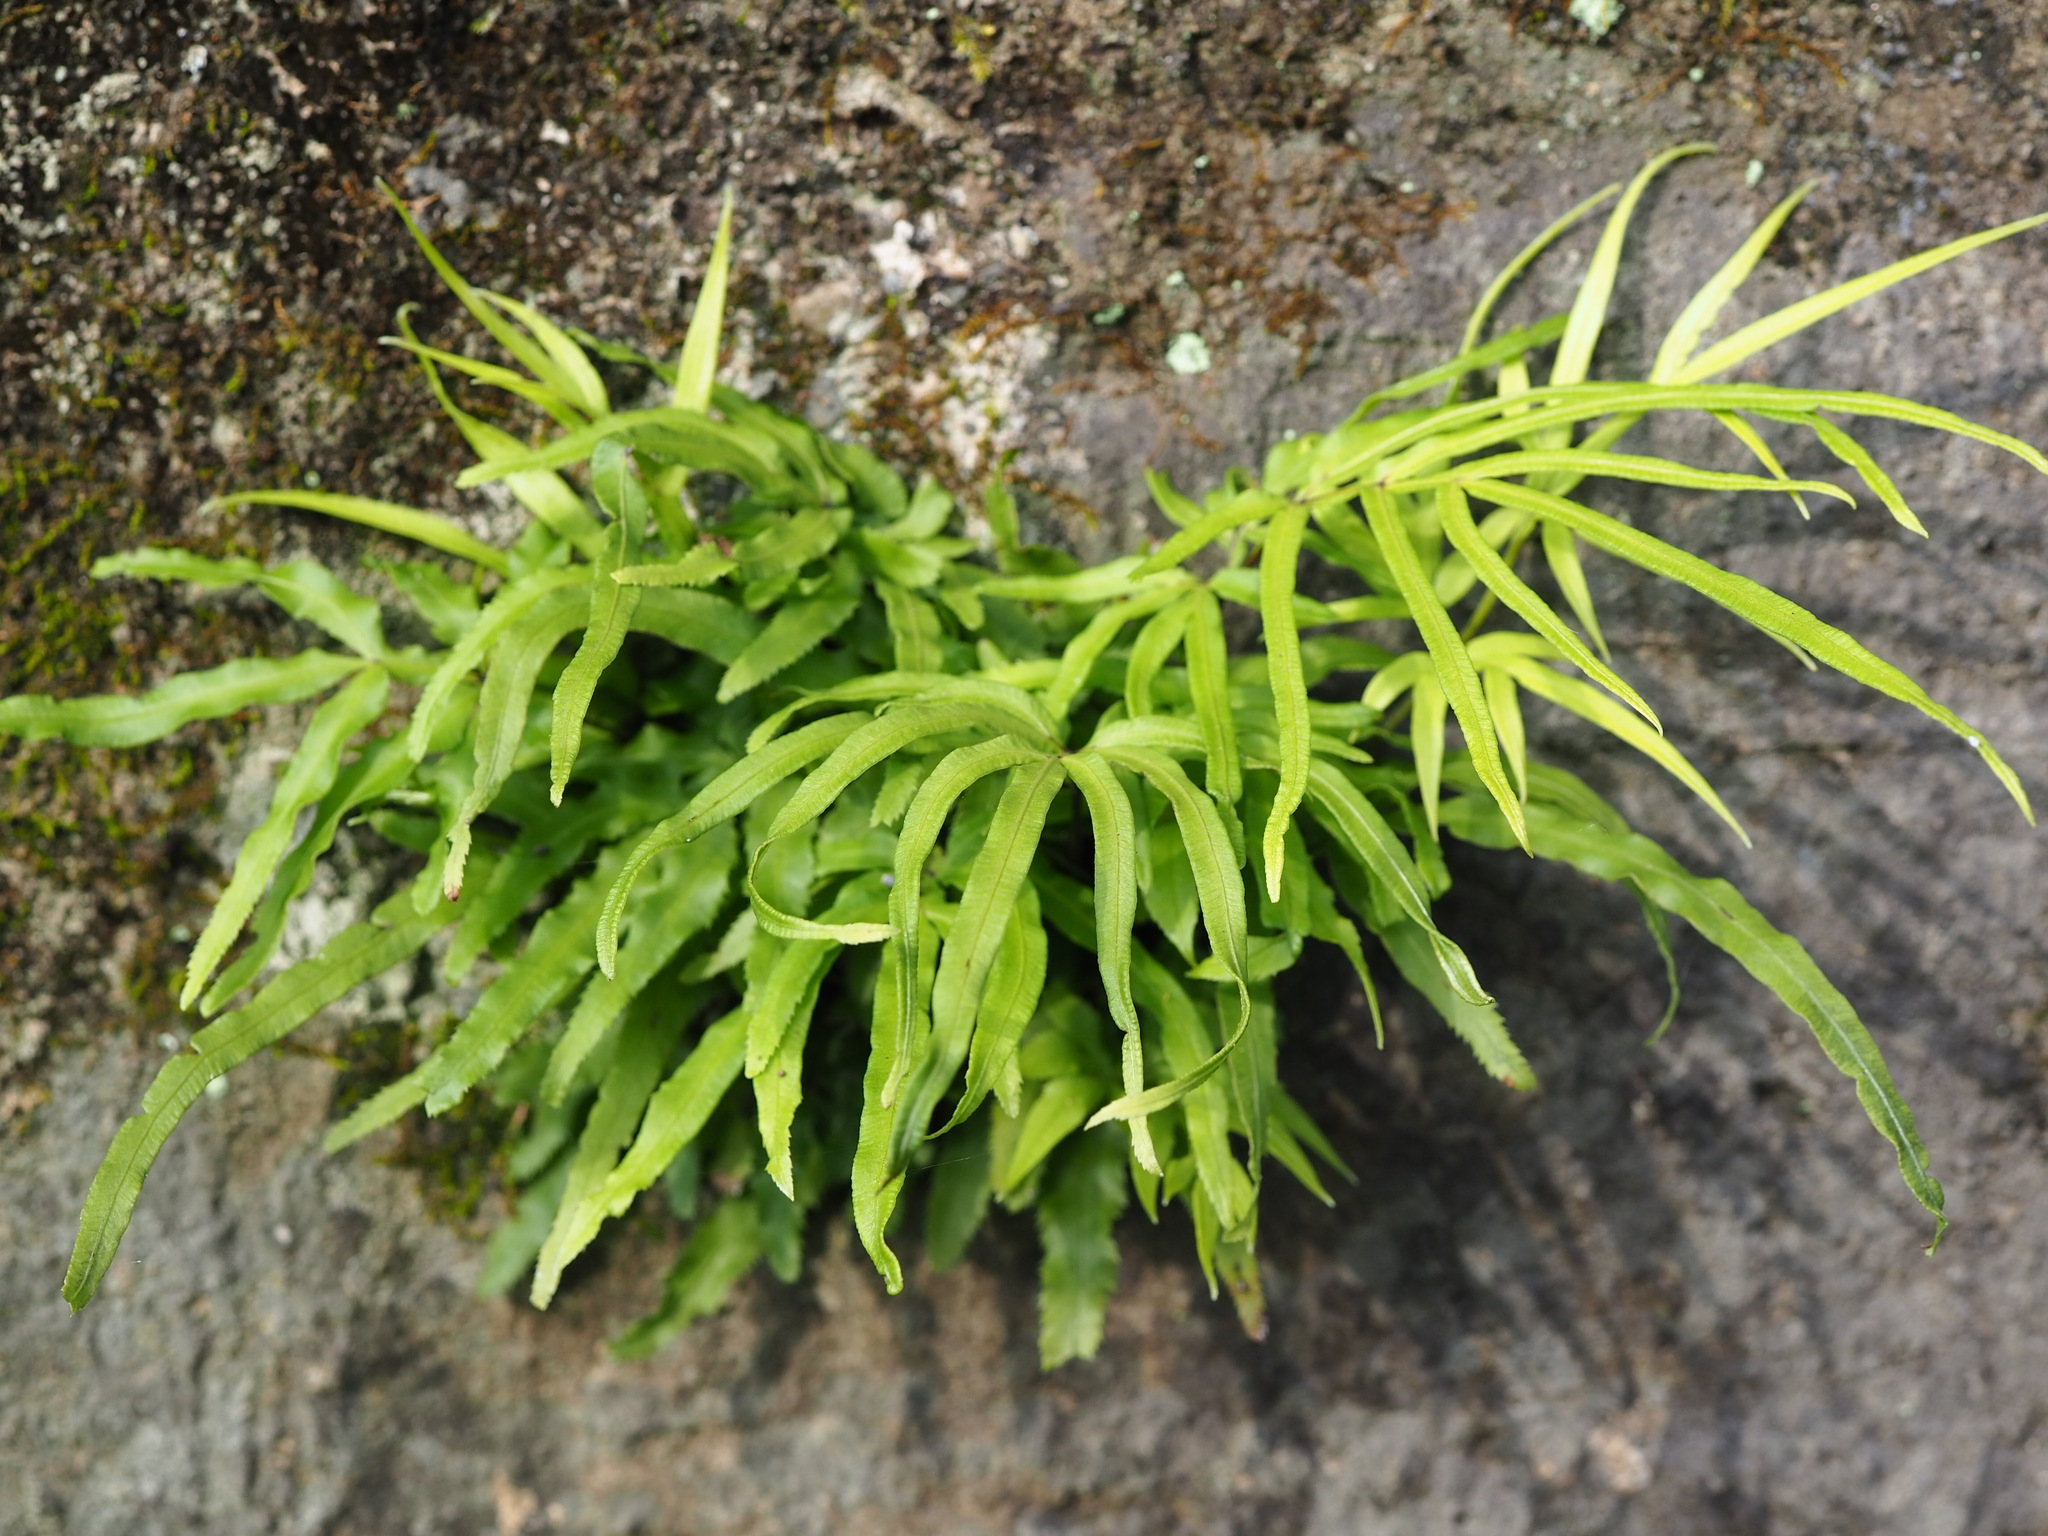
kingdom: Plantae
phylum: Tracheophyta
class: Polypodiopsida
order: Polypodiales
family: Pteridaceae
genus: Pteris
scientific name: Pteris multifida
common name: Spider brake
